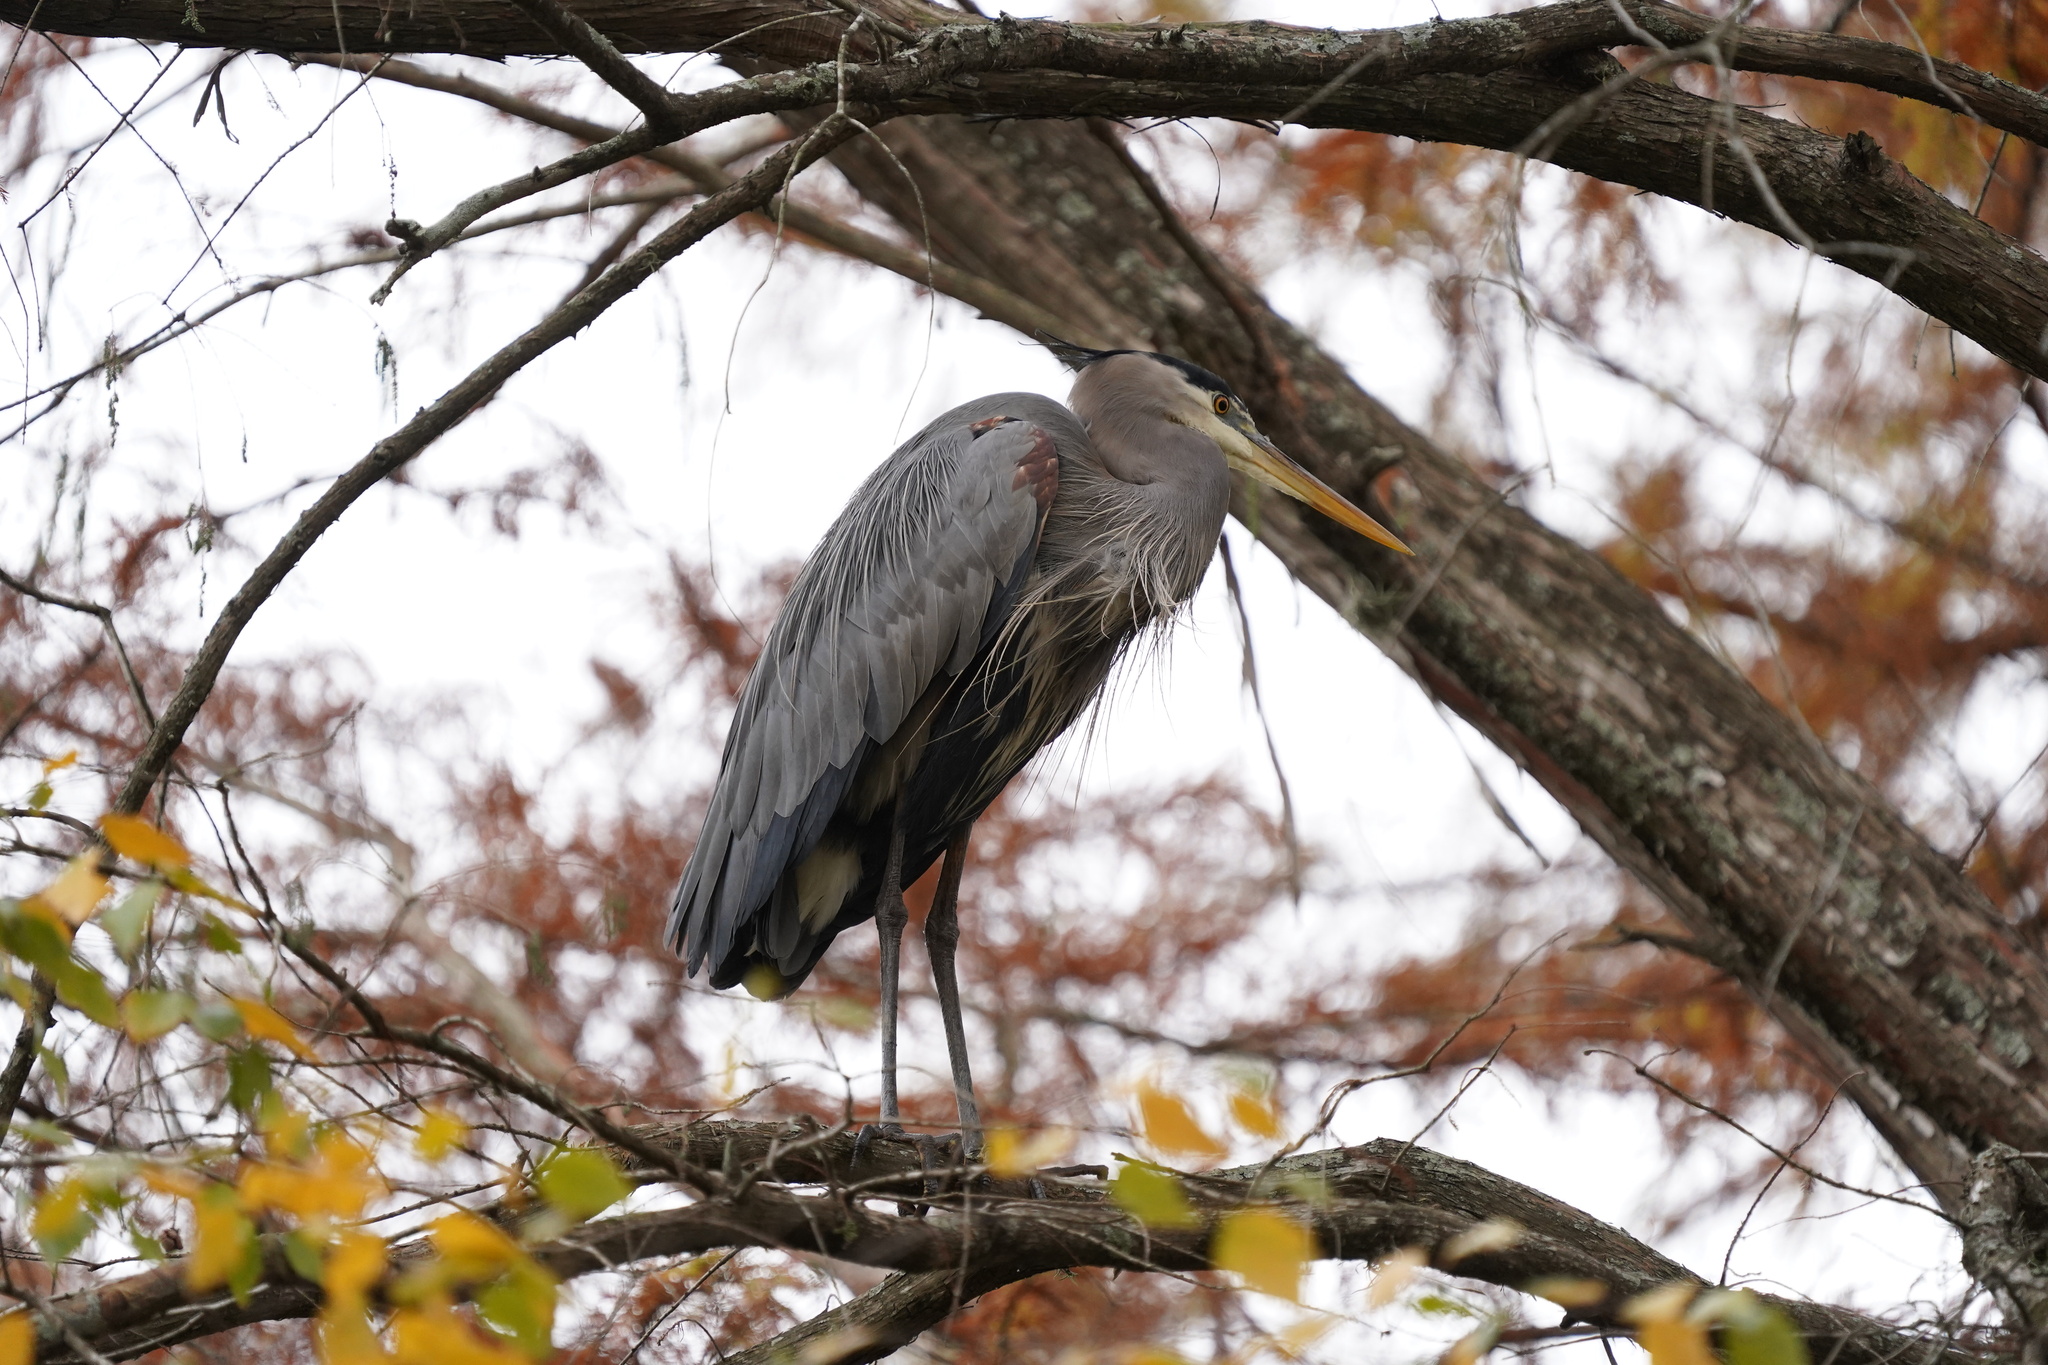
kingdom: Animalia
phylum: Chordata
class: Aves
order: Pelecaniformes
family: Ardeidae
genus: Ardea
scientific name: Ardea herodias
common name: Great blue heron
